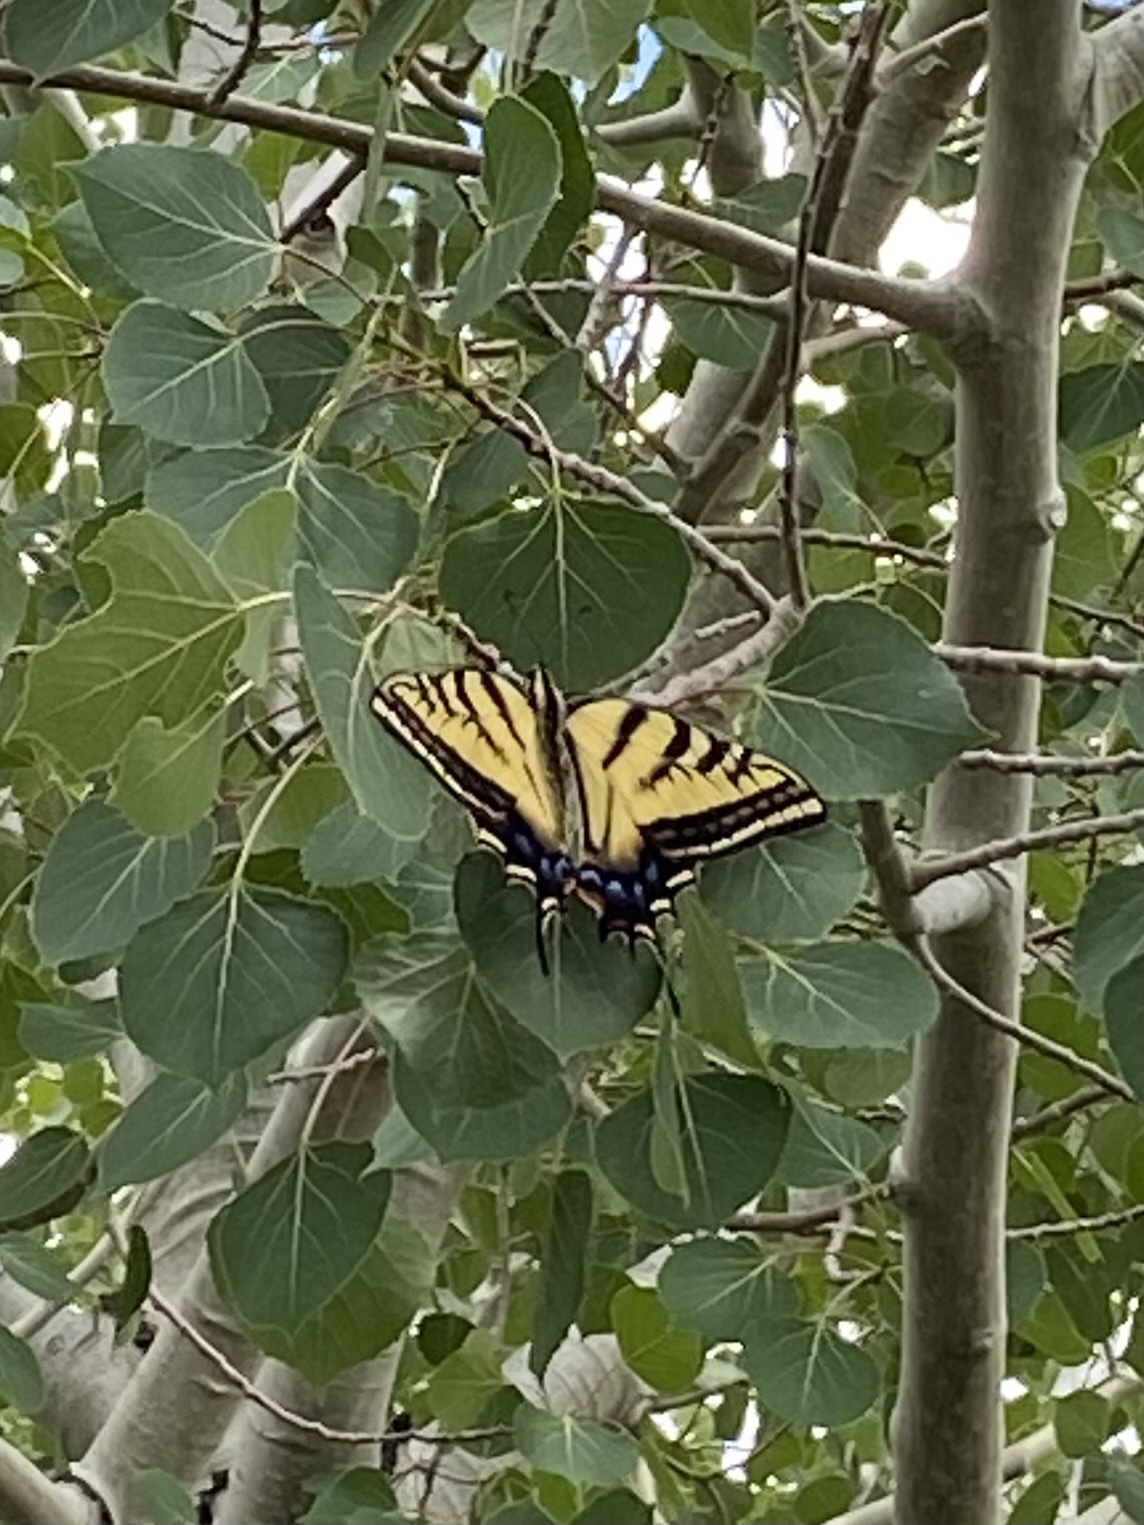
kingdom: Animalia
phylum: Arthropoda
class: Insecta
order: Lepidoptera
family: Papilionidae
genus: Papilio
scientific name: Papilio multicaudata
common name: Two-tailed tiger swallowtail
